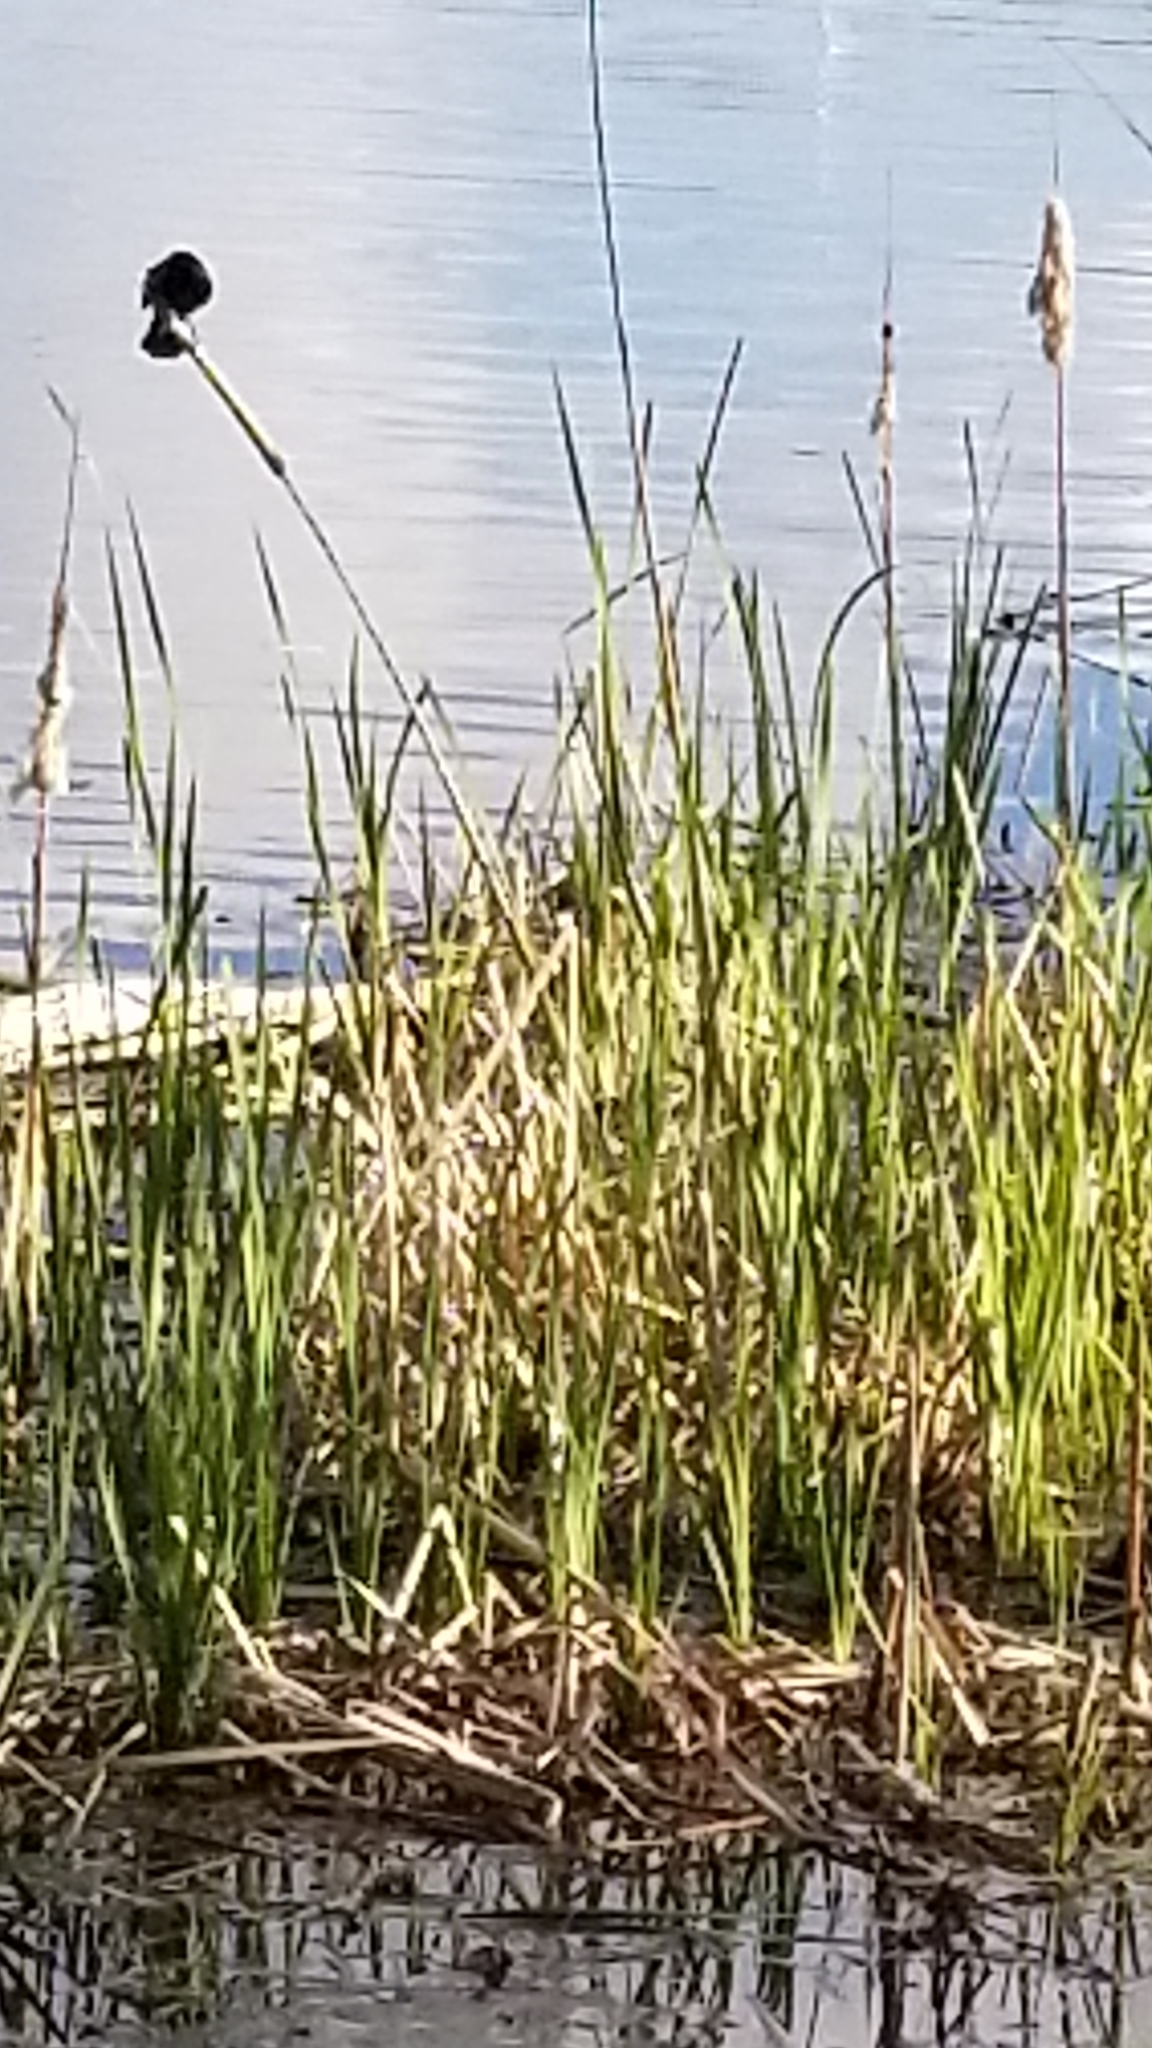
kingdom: Animalia
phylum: Chordata
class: Aves
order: Passeriformes
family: Icteridae
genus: Agelaius
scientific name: Agelaius phoeniceus
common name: Red-winged blackbird
